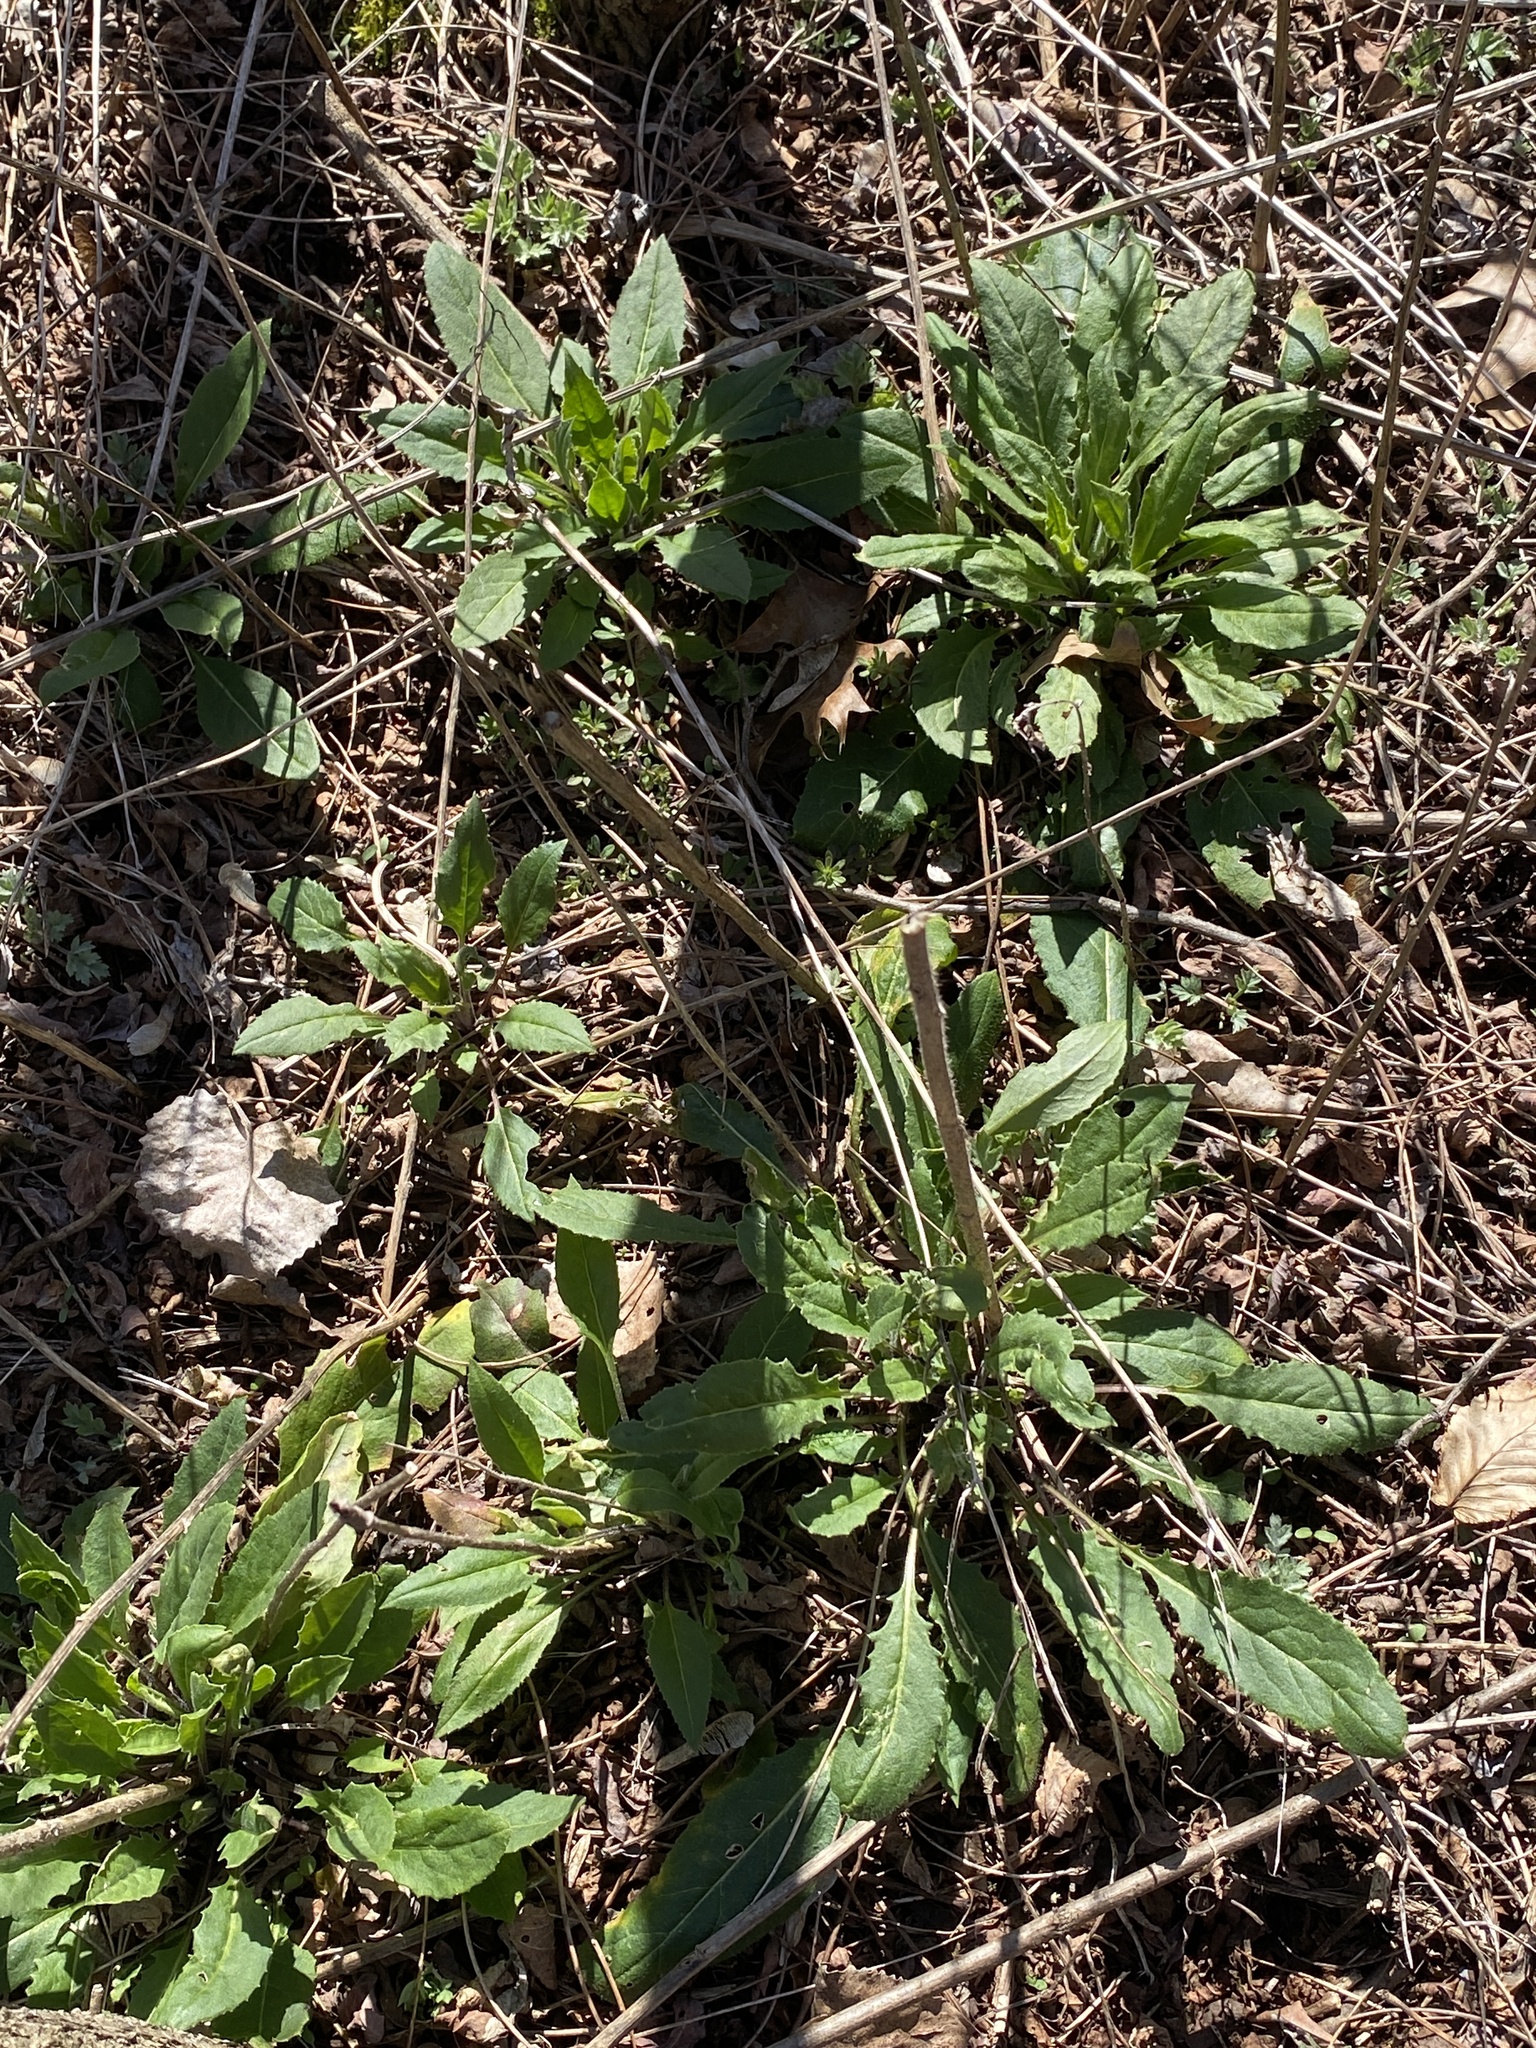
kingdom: Plantae
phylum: Tracheophyta
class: Magnoliopsida
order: Brassicales
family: Brassicaceae
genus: Hesperis
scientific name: Hesperis matronalis
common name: Dame's-violet
